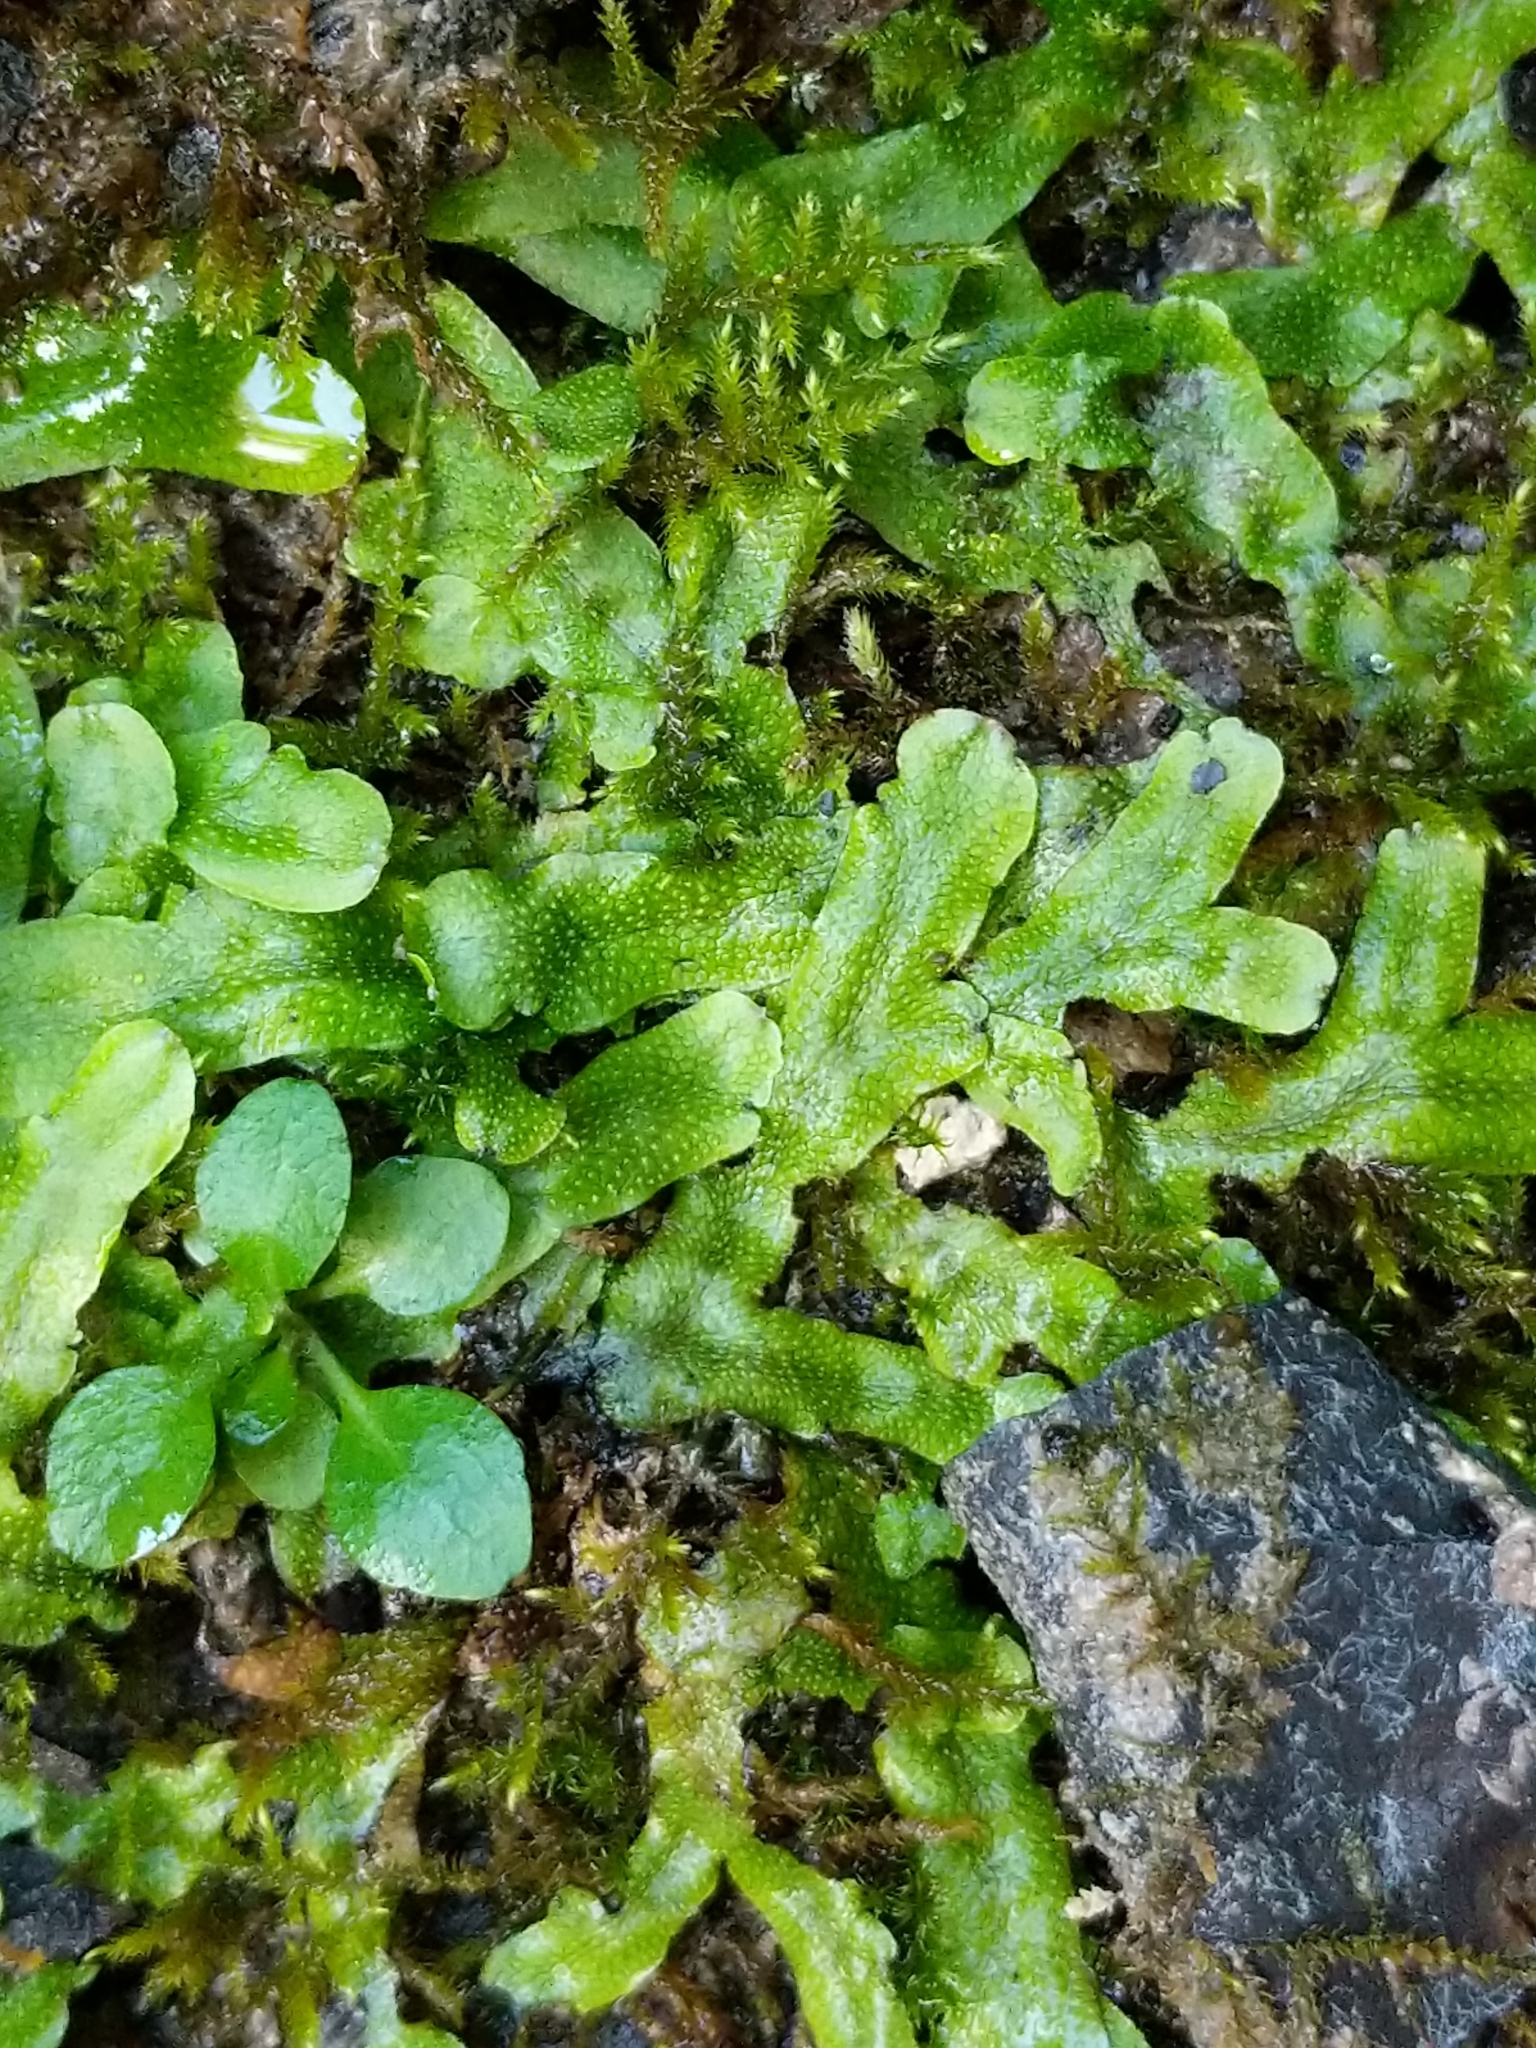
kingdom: Plantae
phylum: Marchantiophyta
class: Marchantiopsida
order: Marchantiales
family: Conocephalaceae
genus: Conocephalum
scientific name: Conocephalum salebrosum
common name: Cat-tongue liverwort
